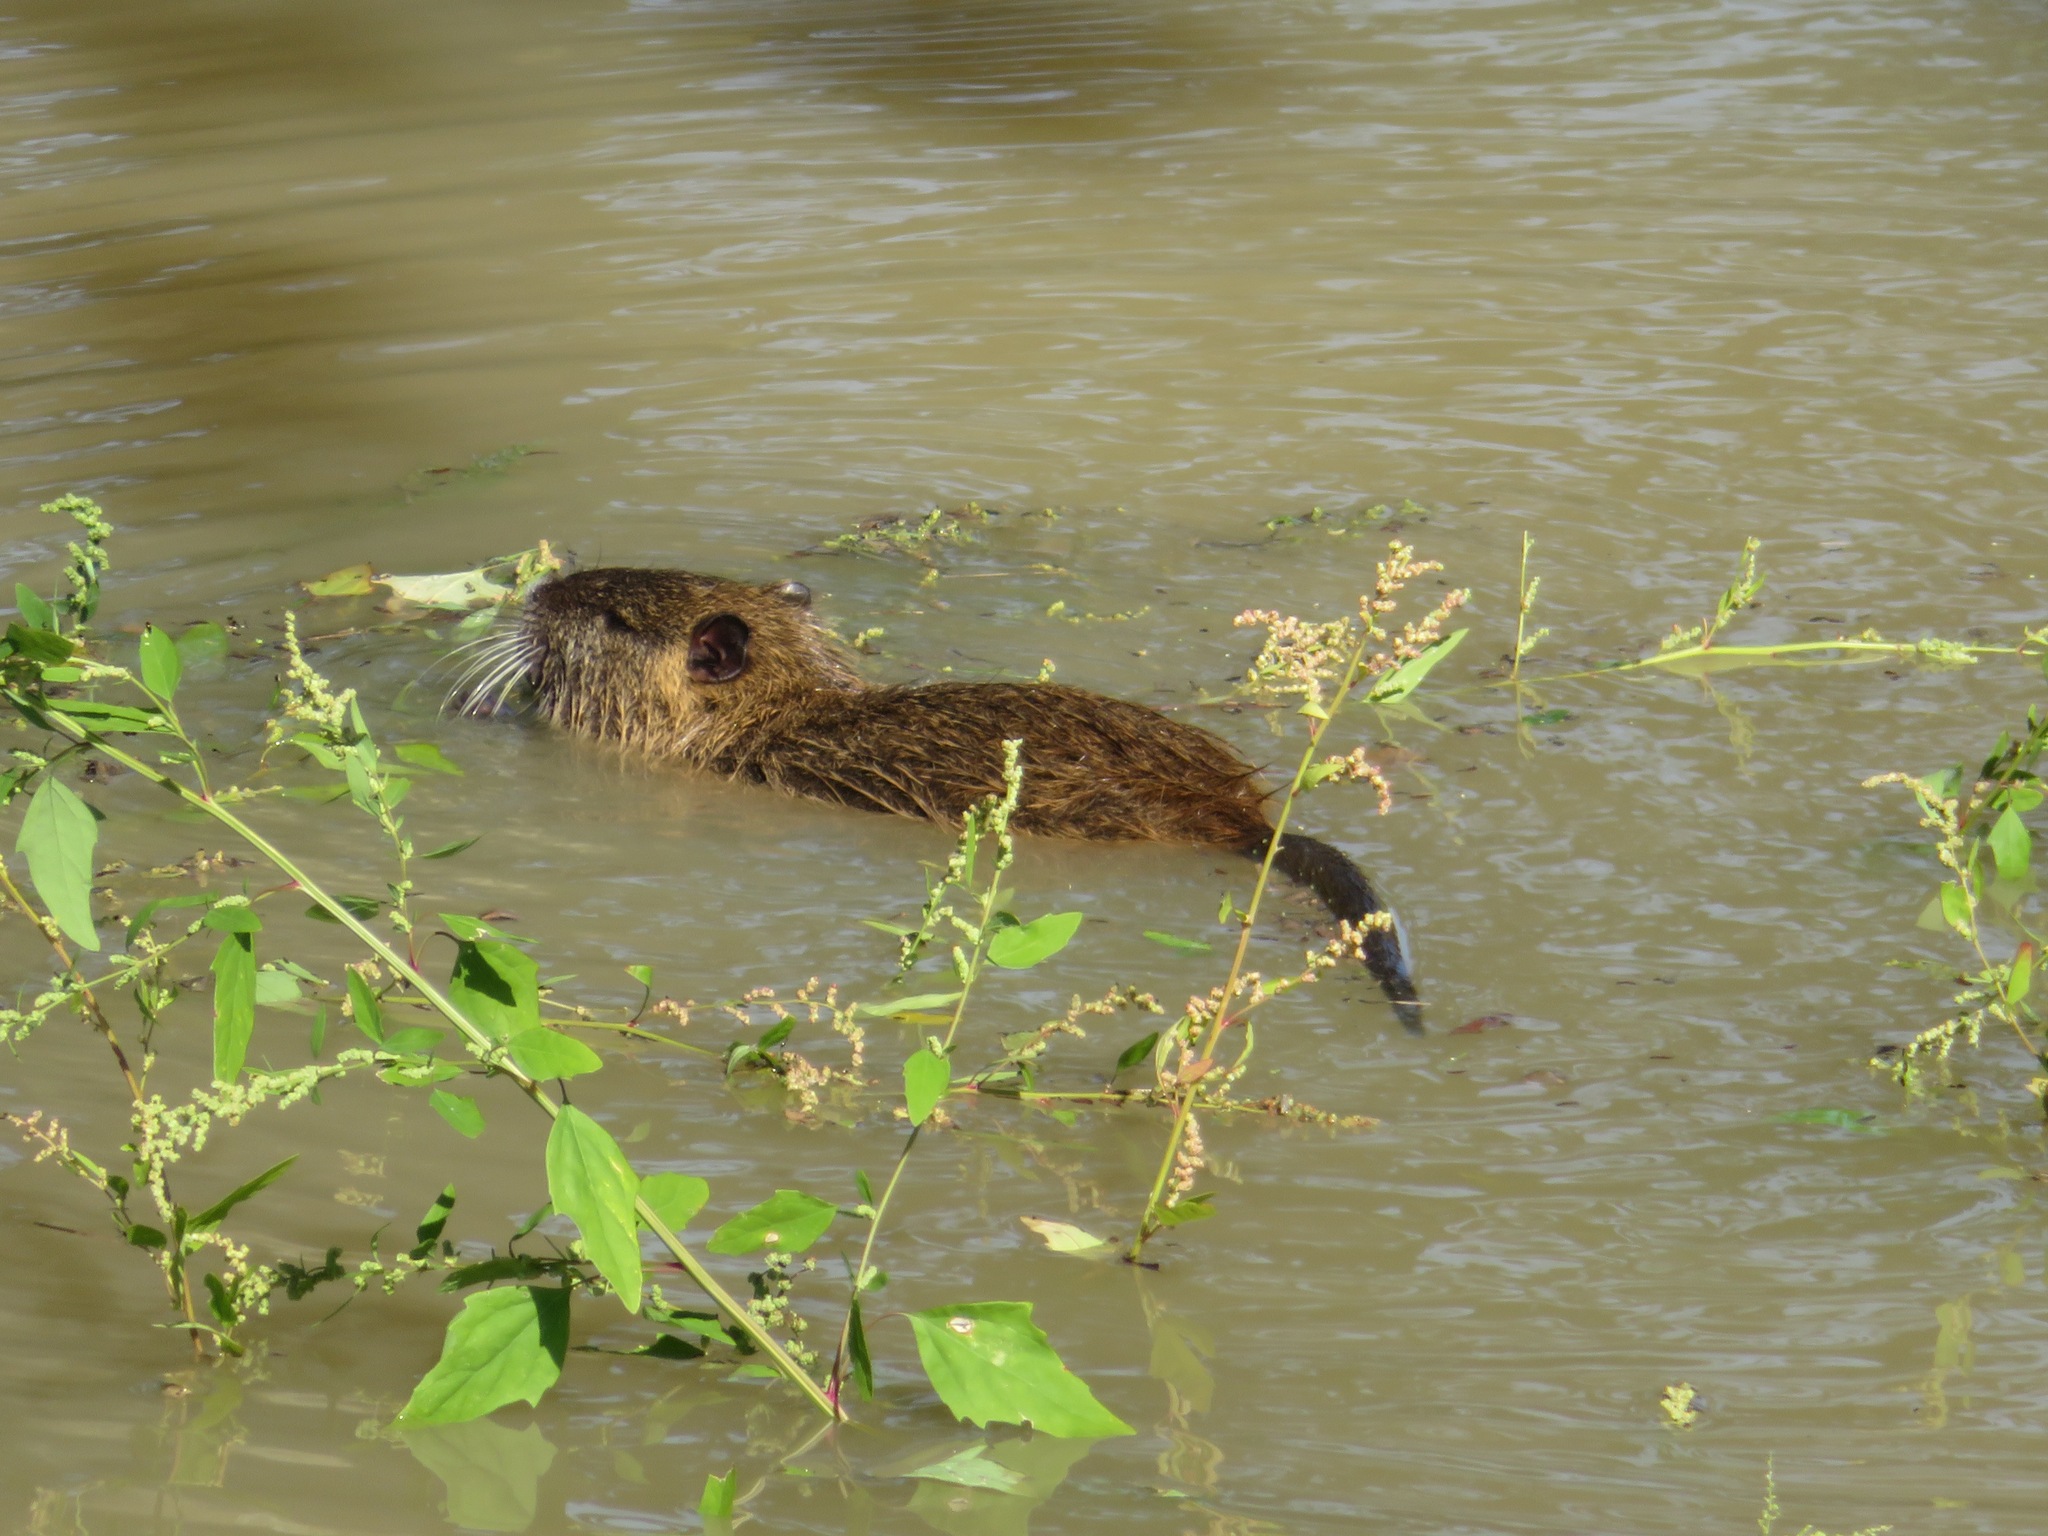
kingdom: Animalia
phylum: Chordata
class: Mammalia
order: Rodentia
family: Myocastoridae
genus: Myocastor
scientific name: Myocastor coypus
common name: Coypu
